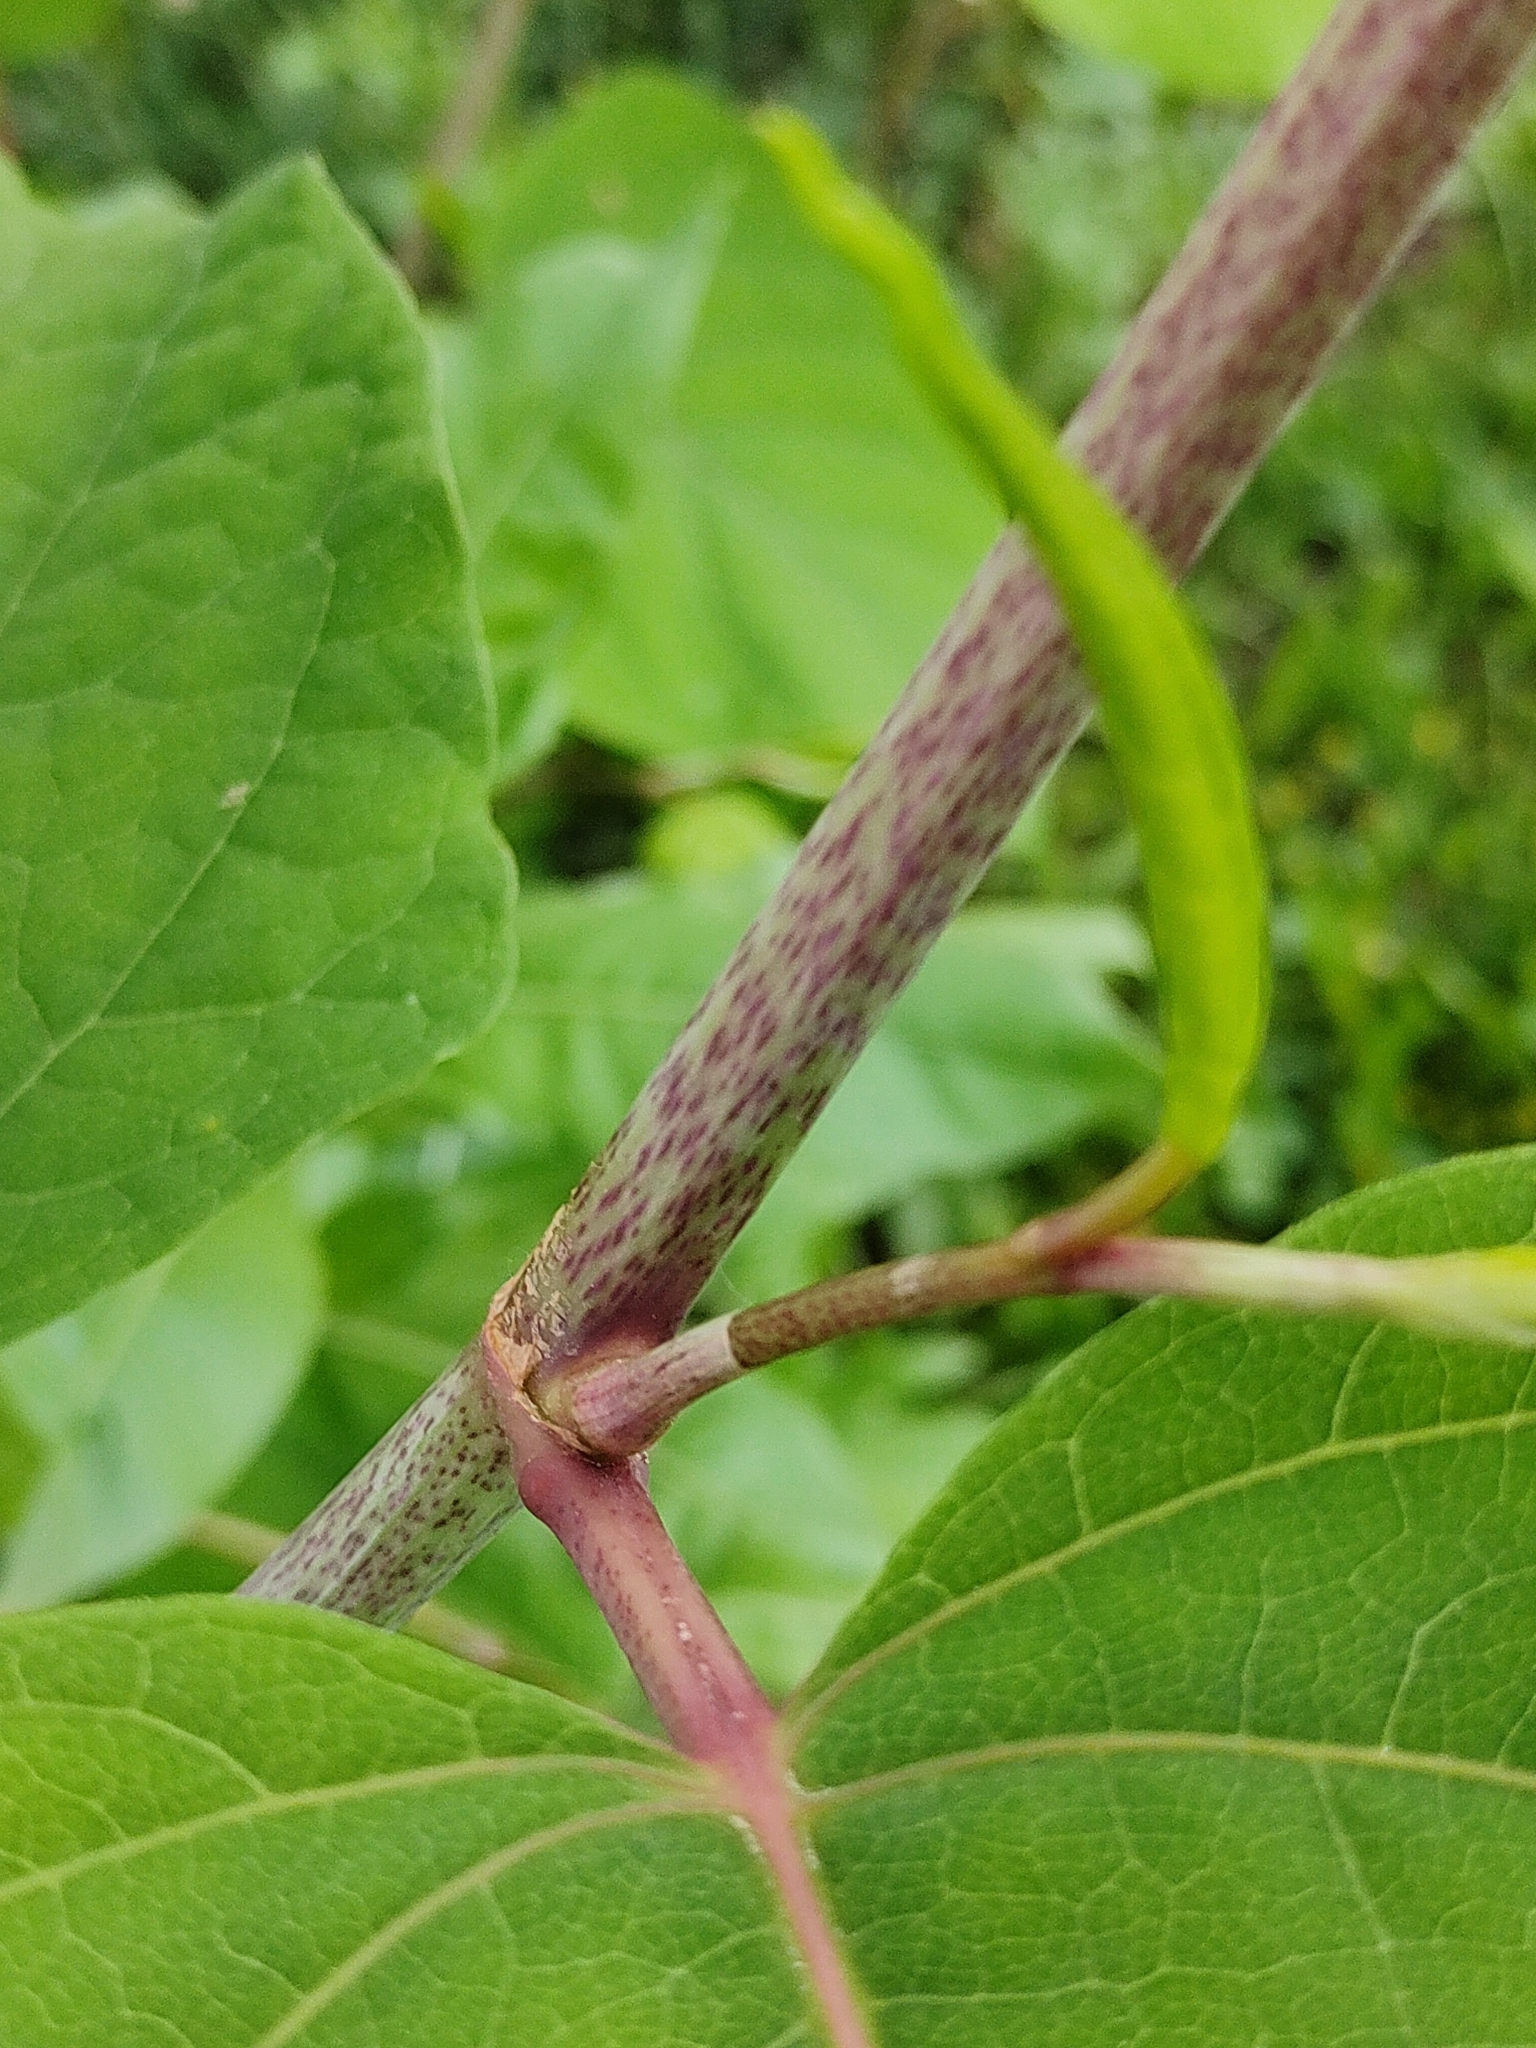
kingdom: Plantae
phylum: Tracheophyta
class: Magnoliopsida
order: Caryophyllales
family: Polygonaceae
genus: Reynoutria
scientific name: Reynoutria japonica
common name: Japanese knotweed
